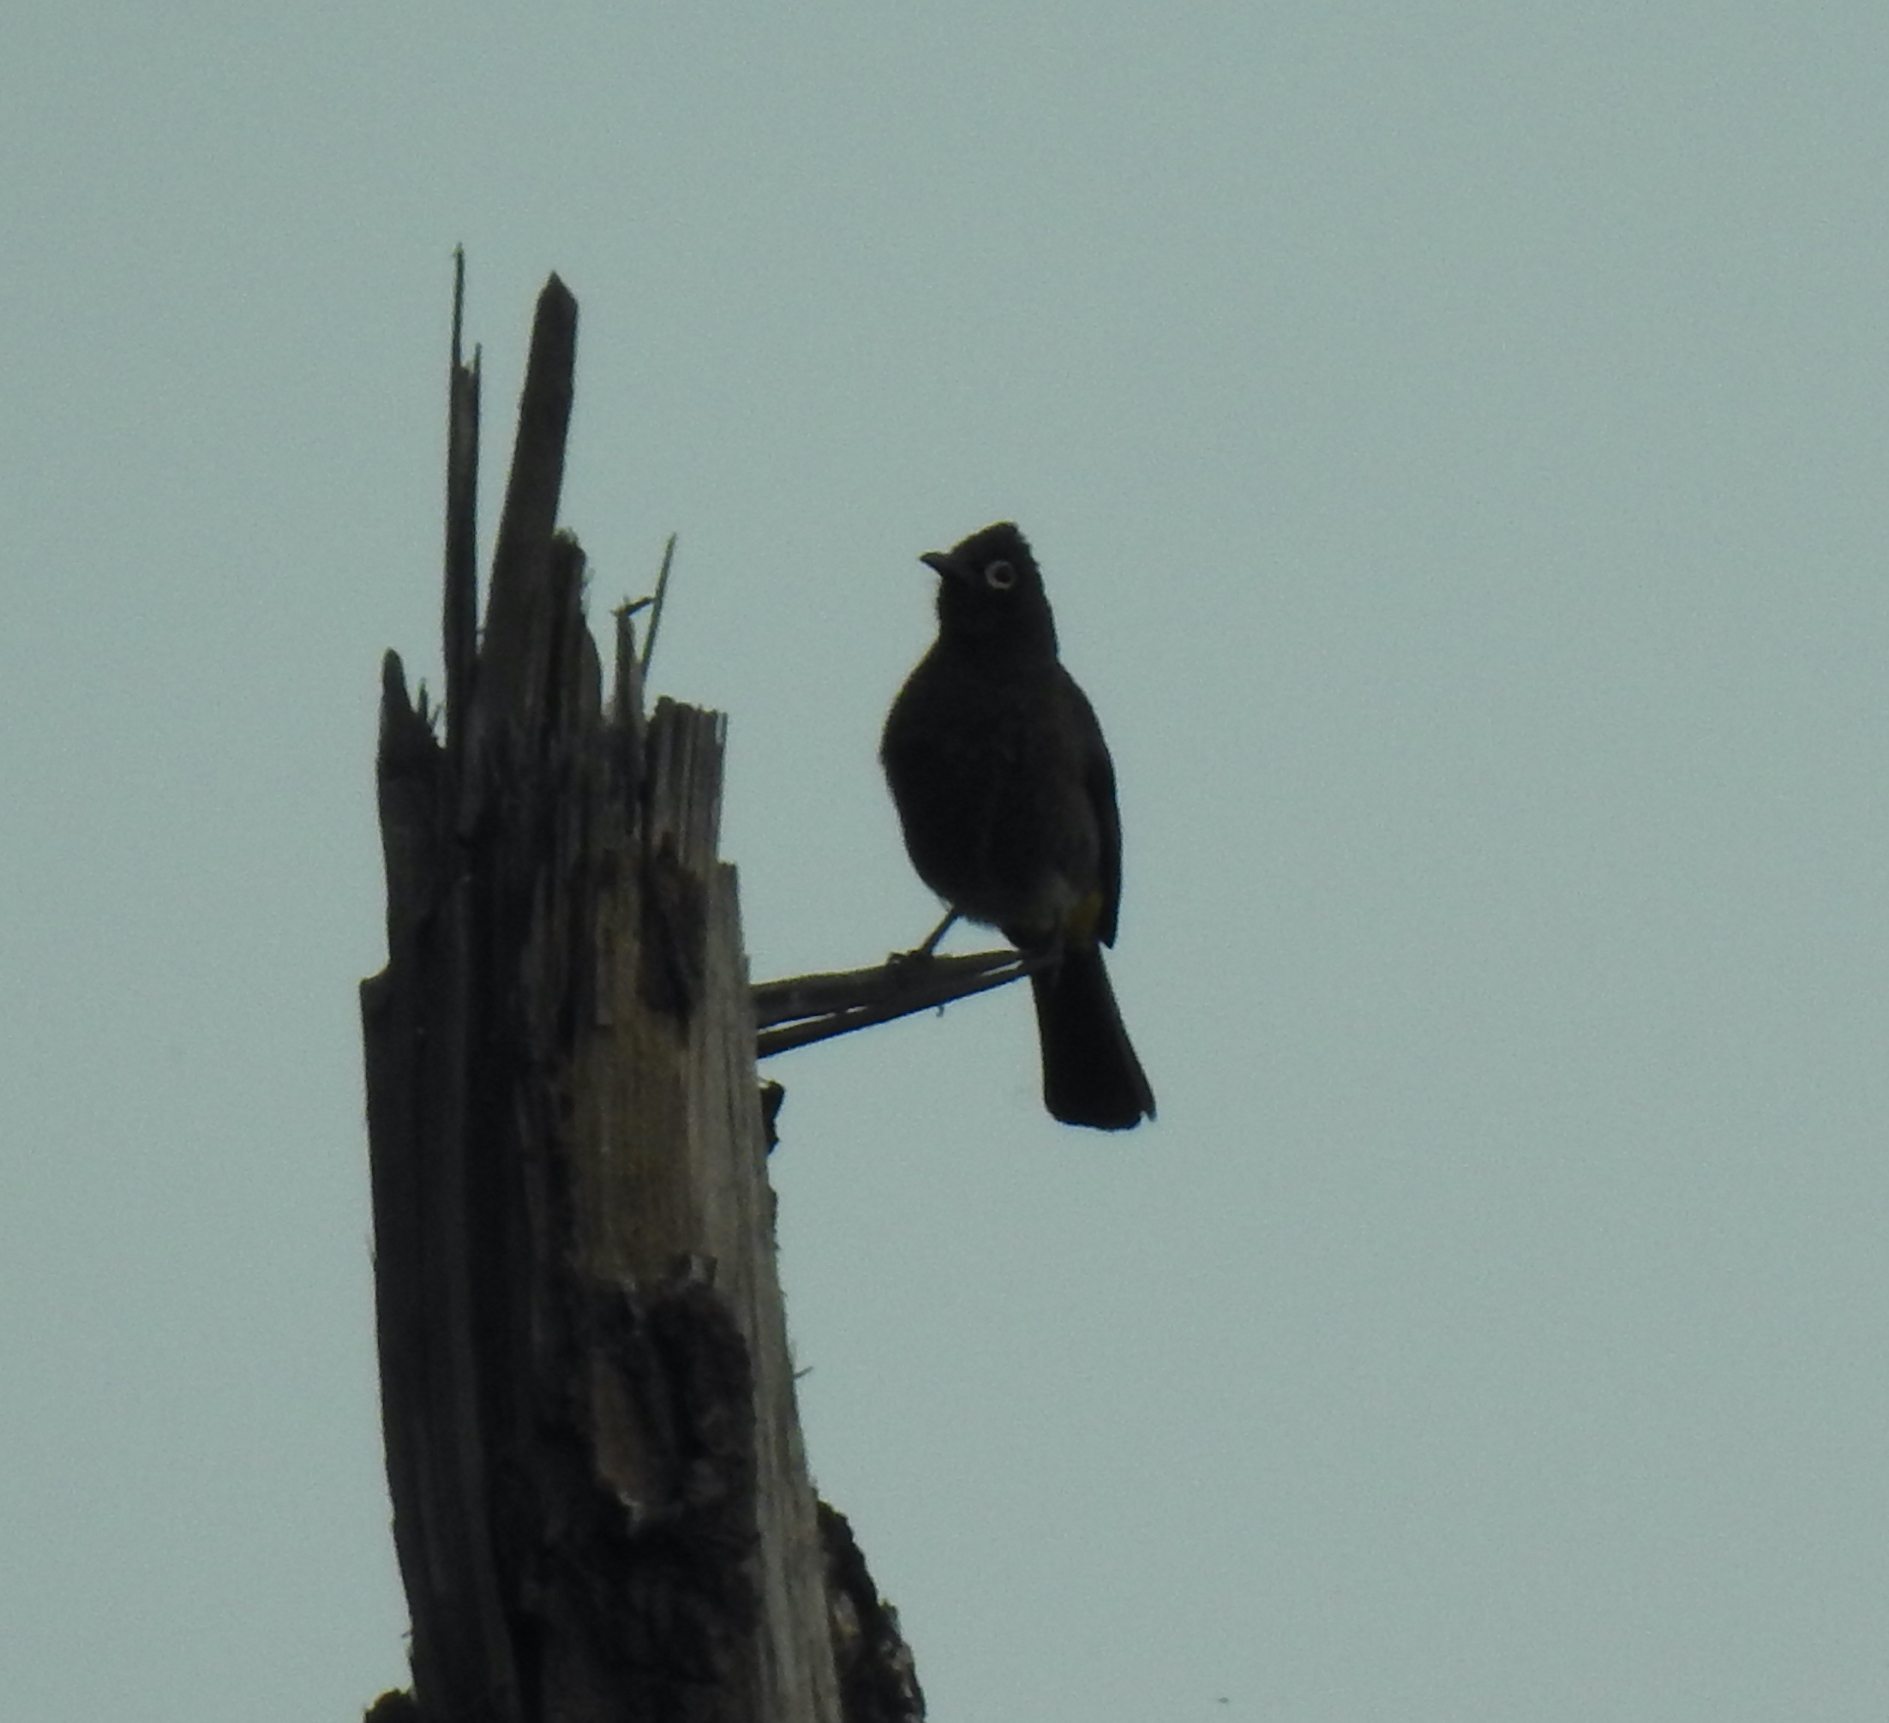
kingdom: Animalia
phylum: Chordata
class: Aves
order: Passeriformes
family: Pycnonotidae
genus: Pycnonotus
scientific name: Pycnonotus capensis
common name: Cape bulbul
